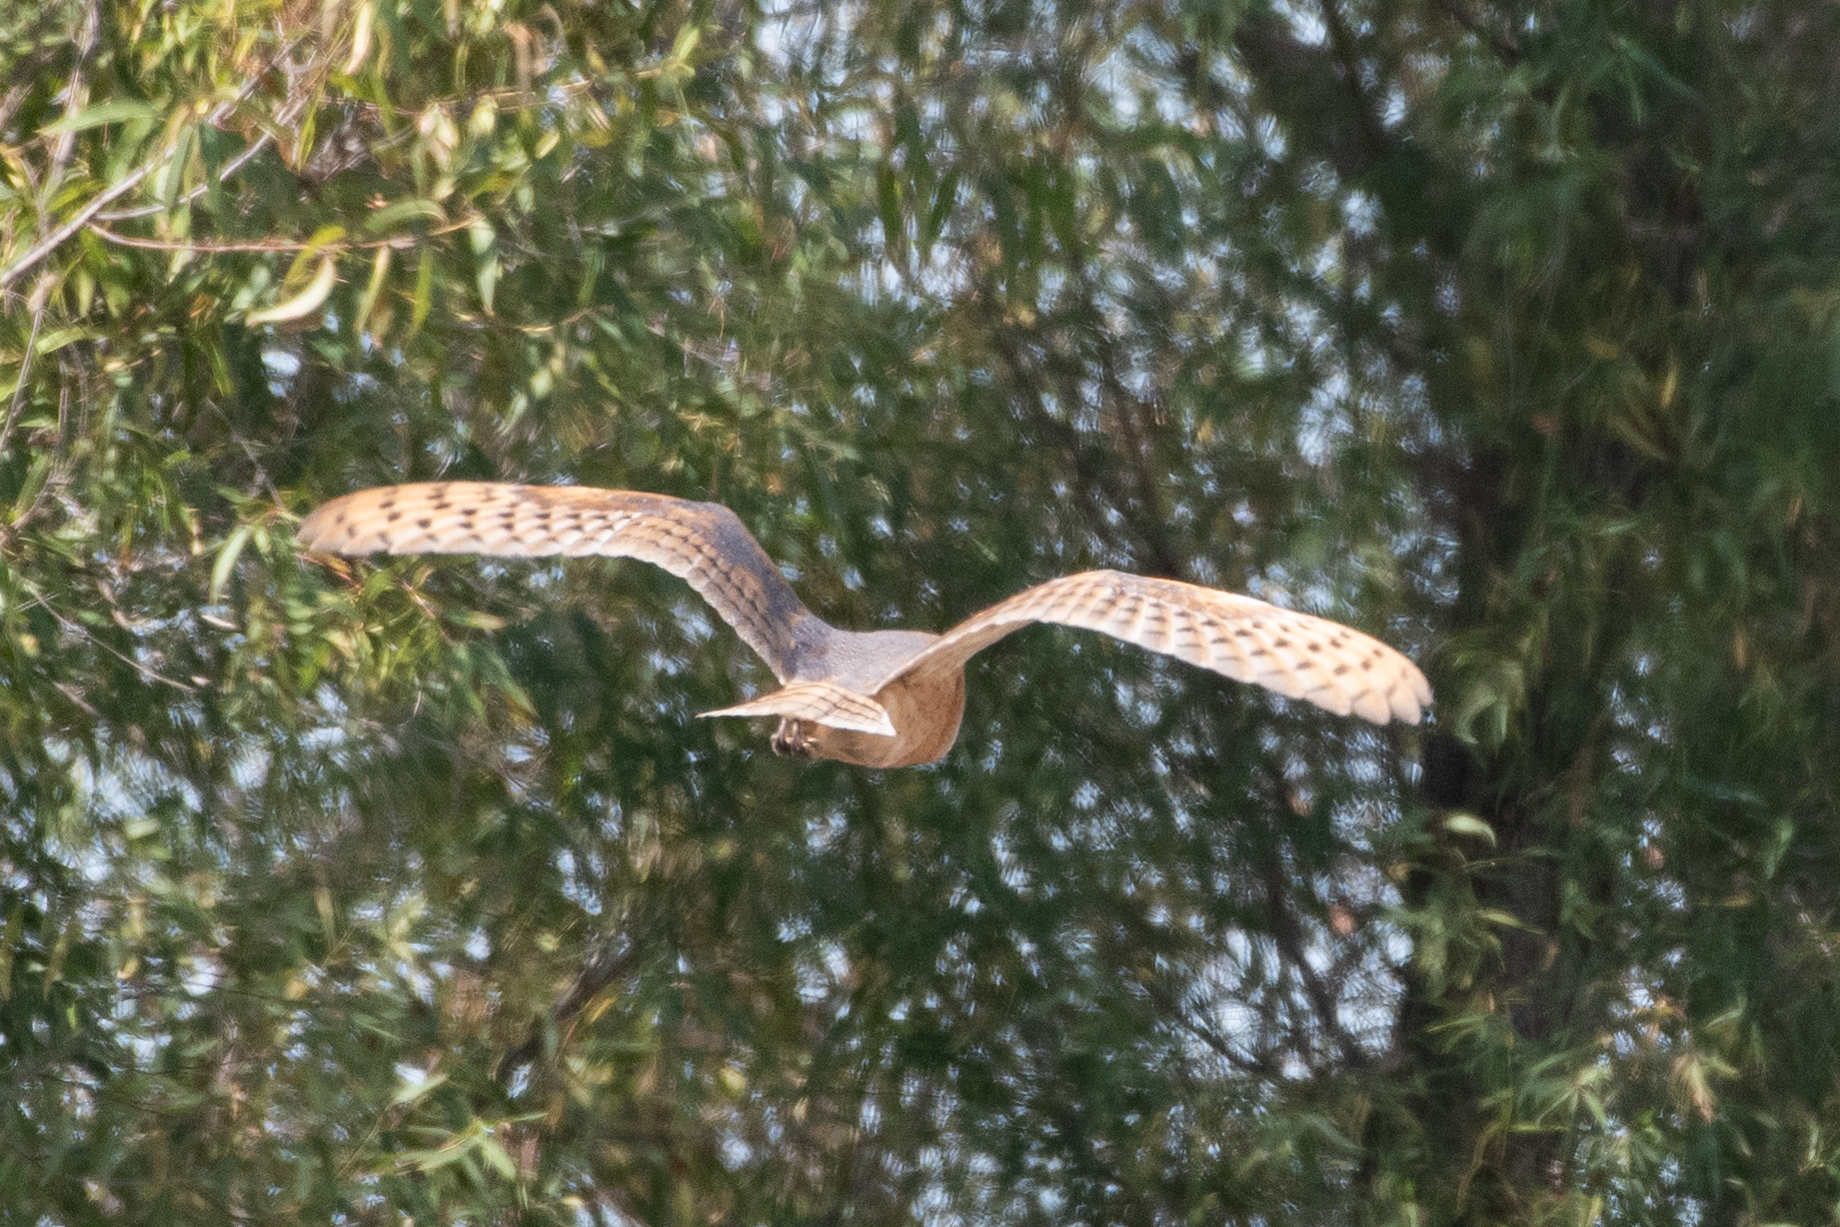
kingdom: Animalia
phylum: Chordata
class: Aves
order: Strigiformes
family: Tytonidae
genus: Tyto
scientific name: Tyto alba
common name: Barn owl
